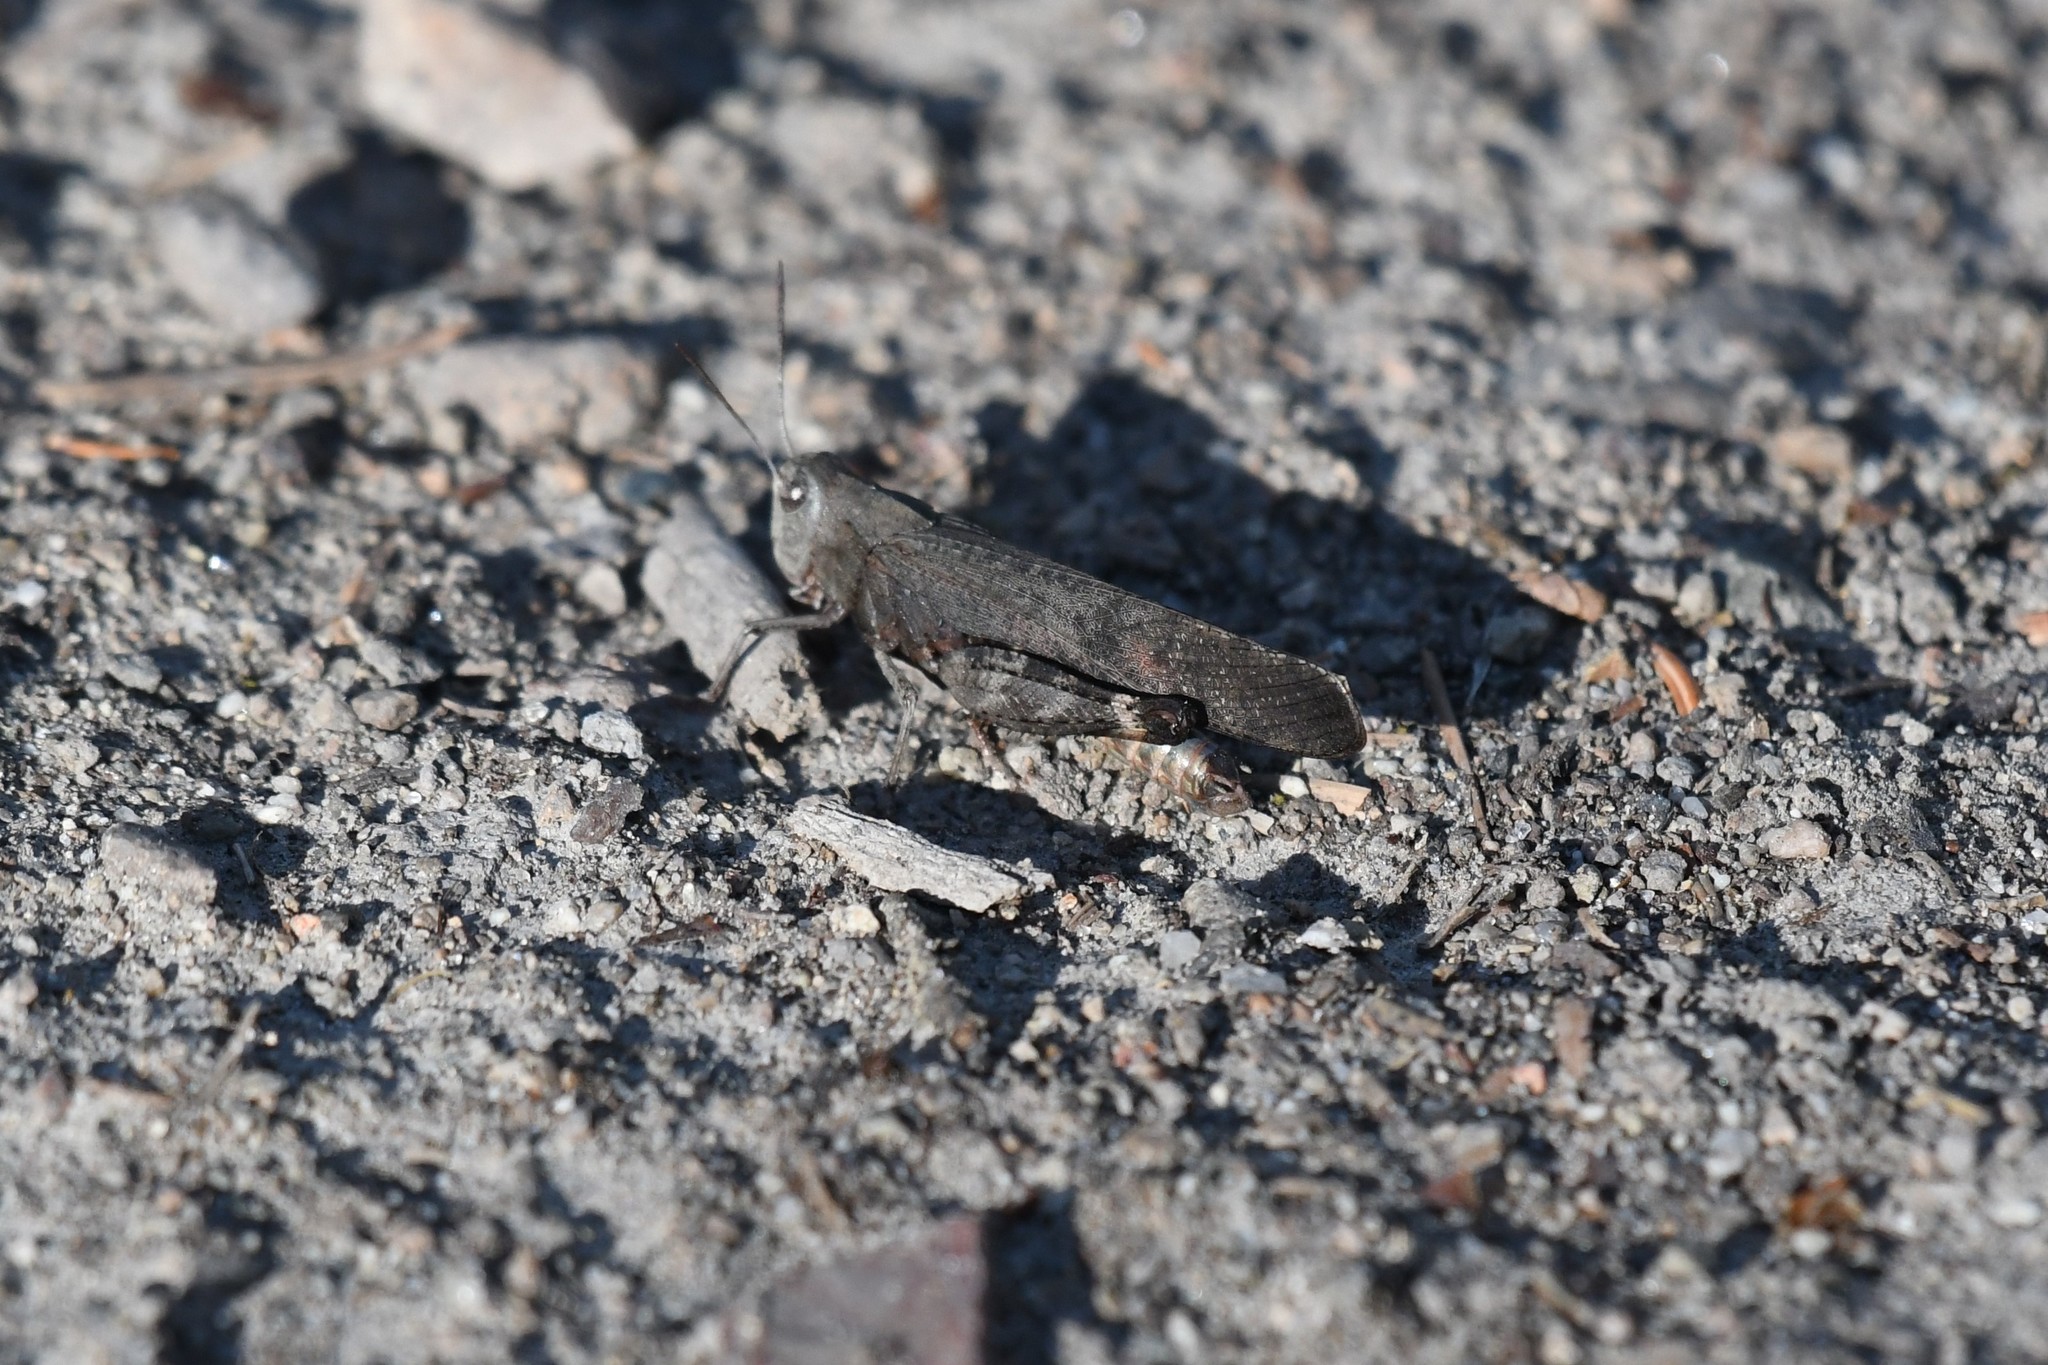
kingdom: Animalia
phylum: Arthropoda
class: Insecta
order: Orthoptera
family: Acrididae
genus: Arphia
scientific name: Arphia pseudo-nietana
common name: Red-winged grasshopper
